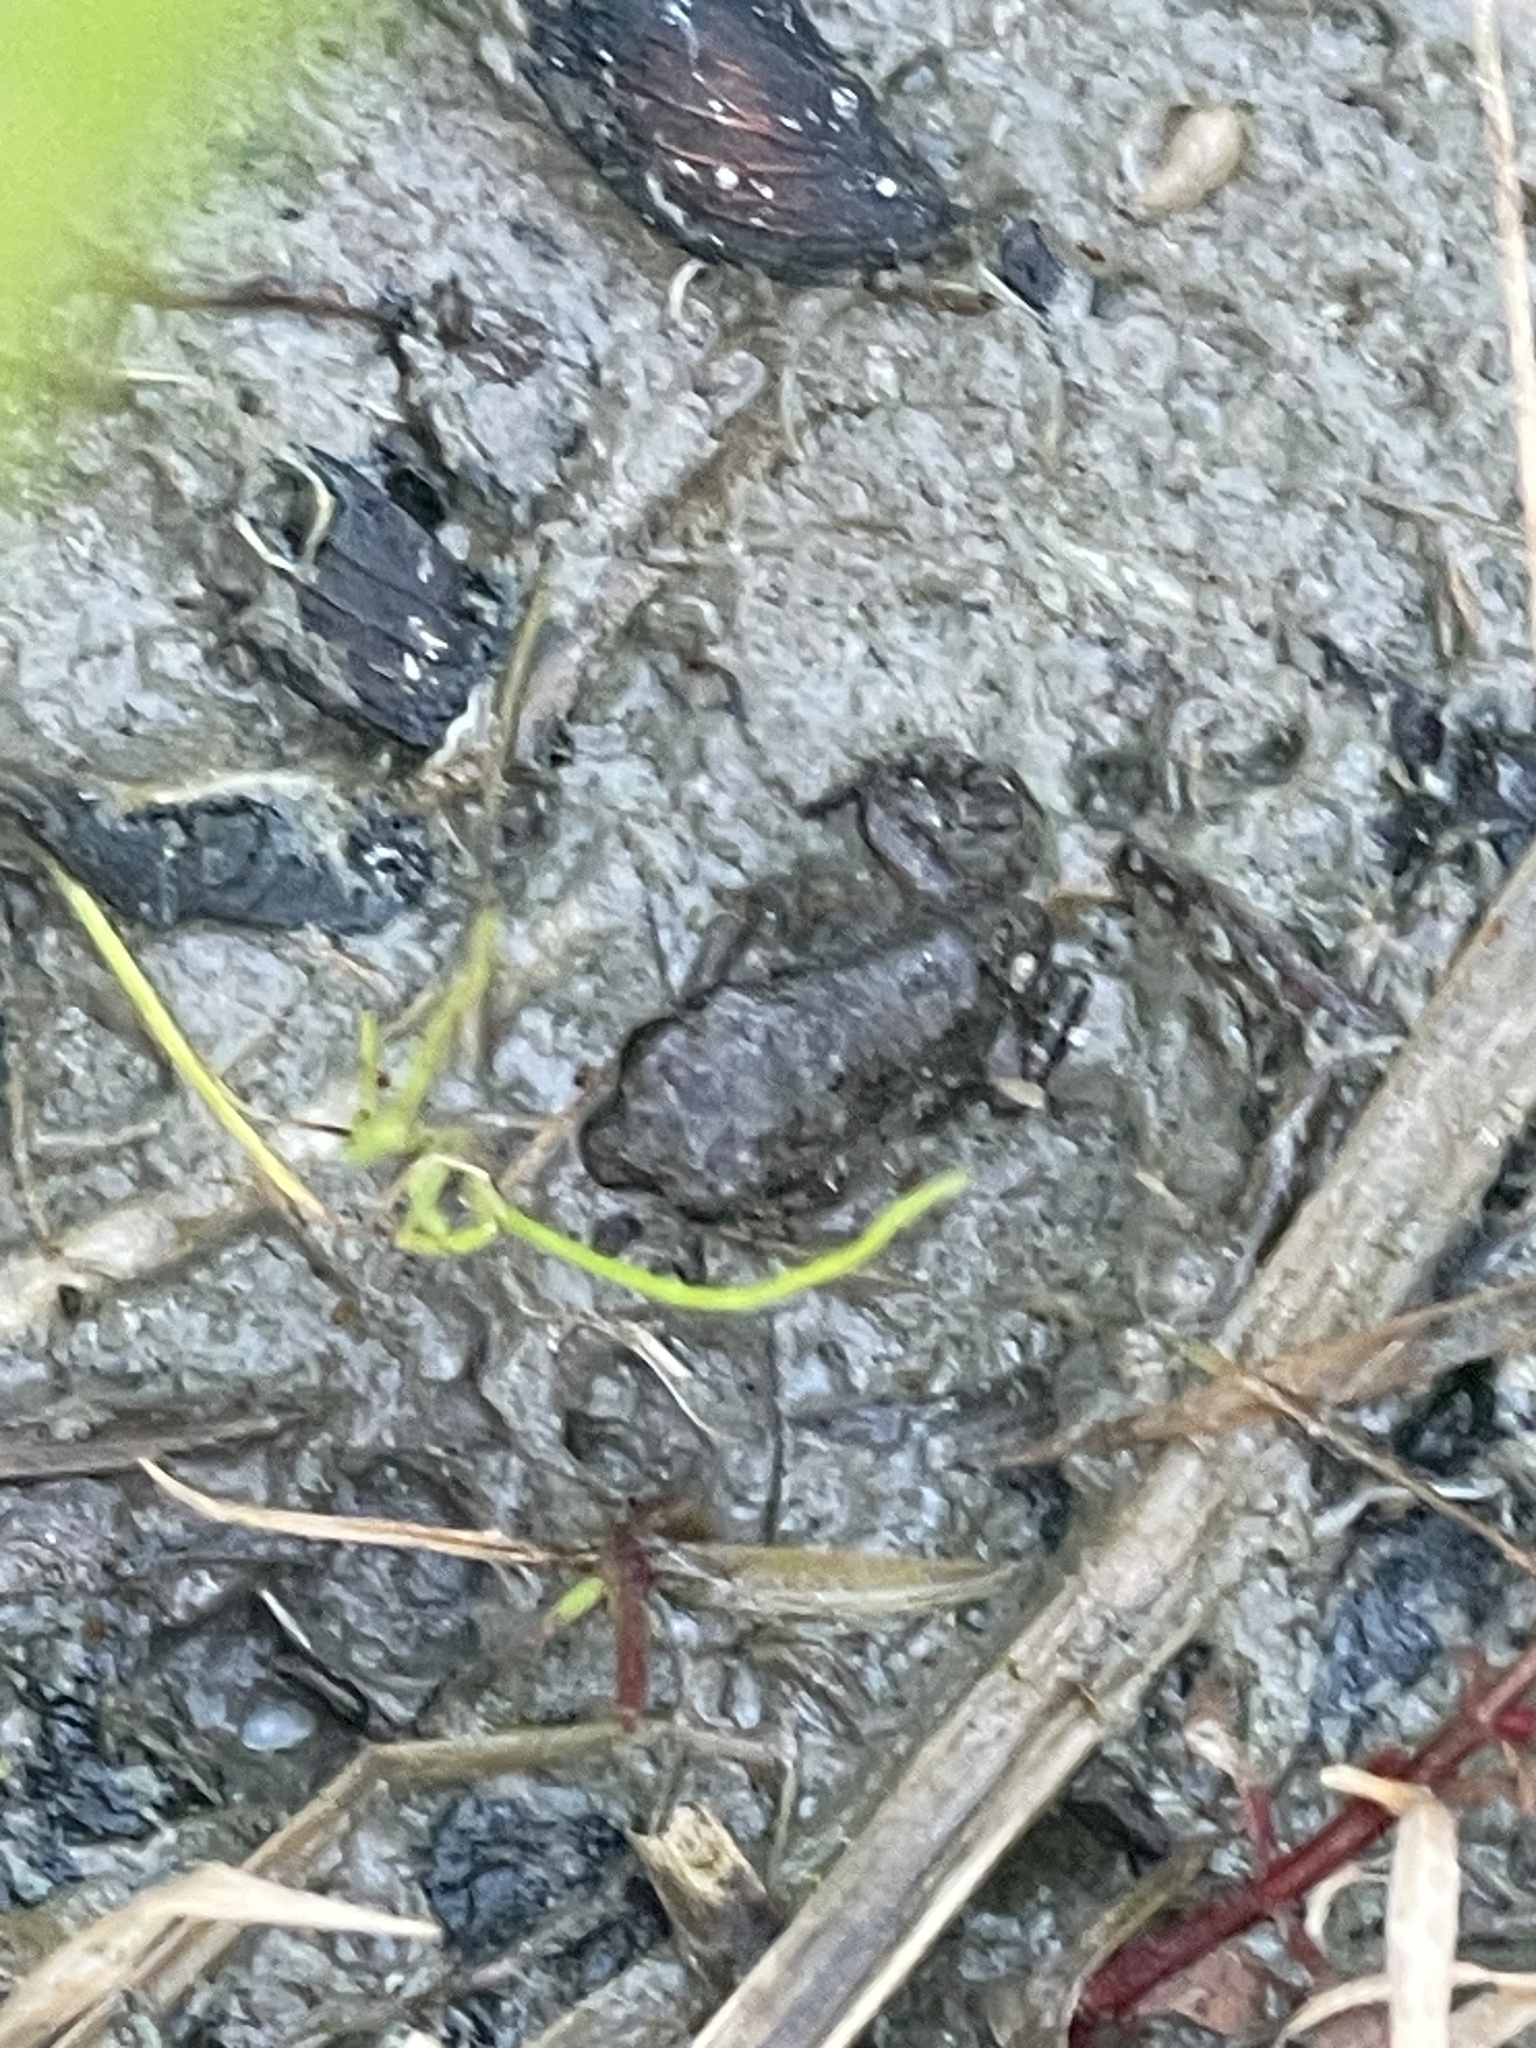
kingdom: Animalia
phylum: Chordata
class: Amphibia
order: Anura
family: Bufonidae
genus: Anaxyrus
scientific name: Anaxyrus fowleri
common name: Fowler's toad
